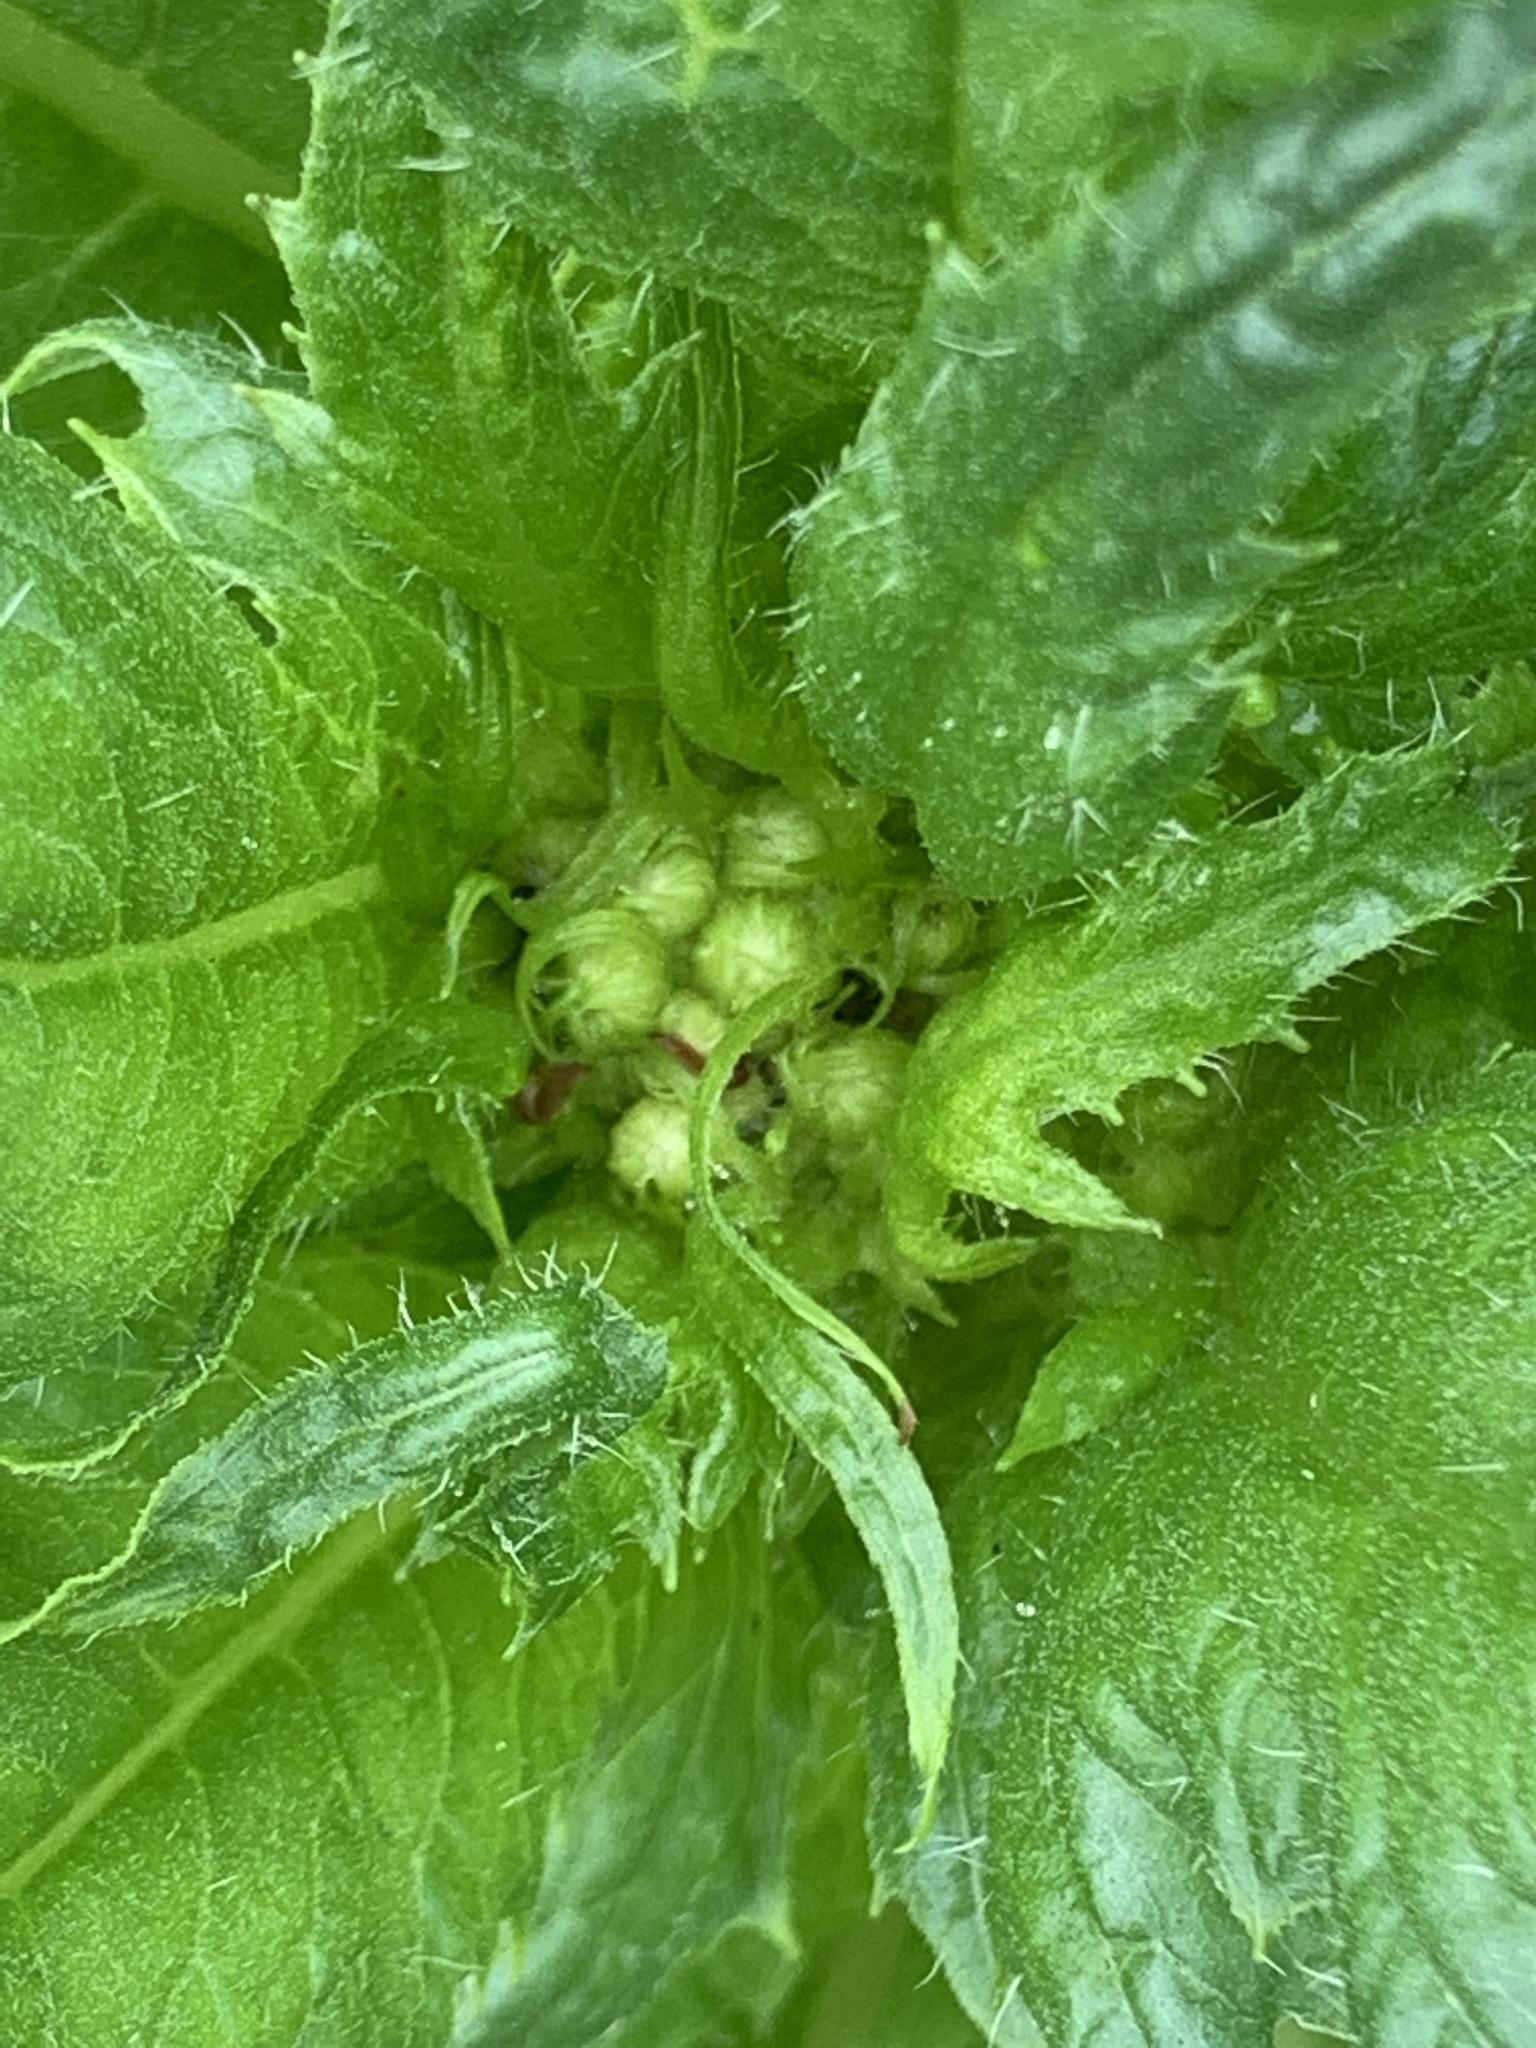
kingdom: Plantae
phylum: Tracheophyta
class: Magnoliopsida
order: Asterales
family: Asteraceae
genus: Erechtites
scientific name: Erechtites hieraciifolius
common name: American burnweed
